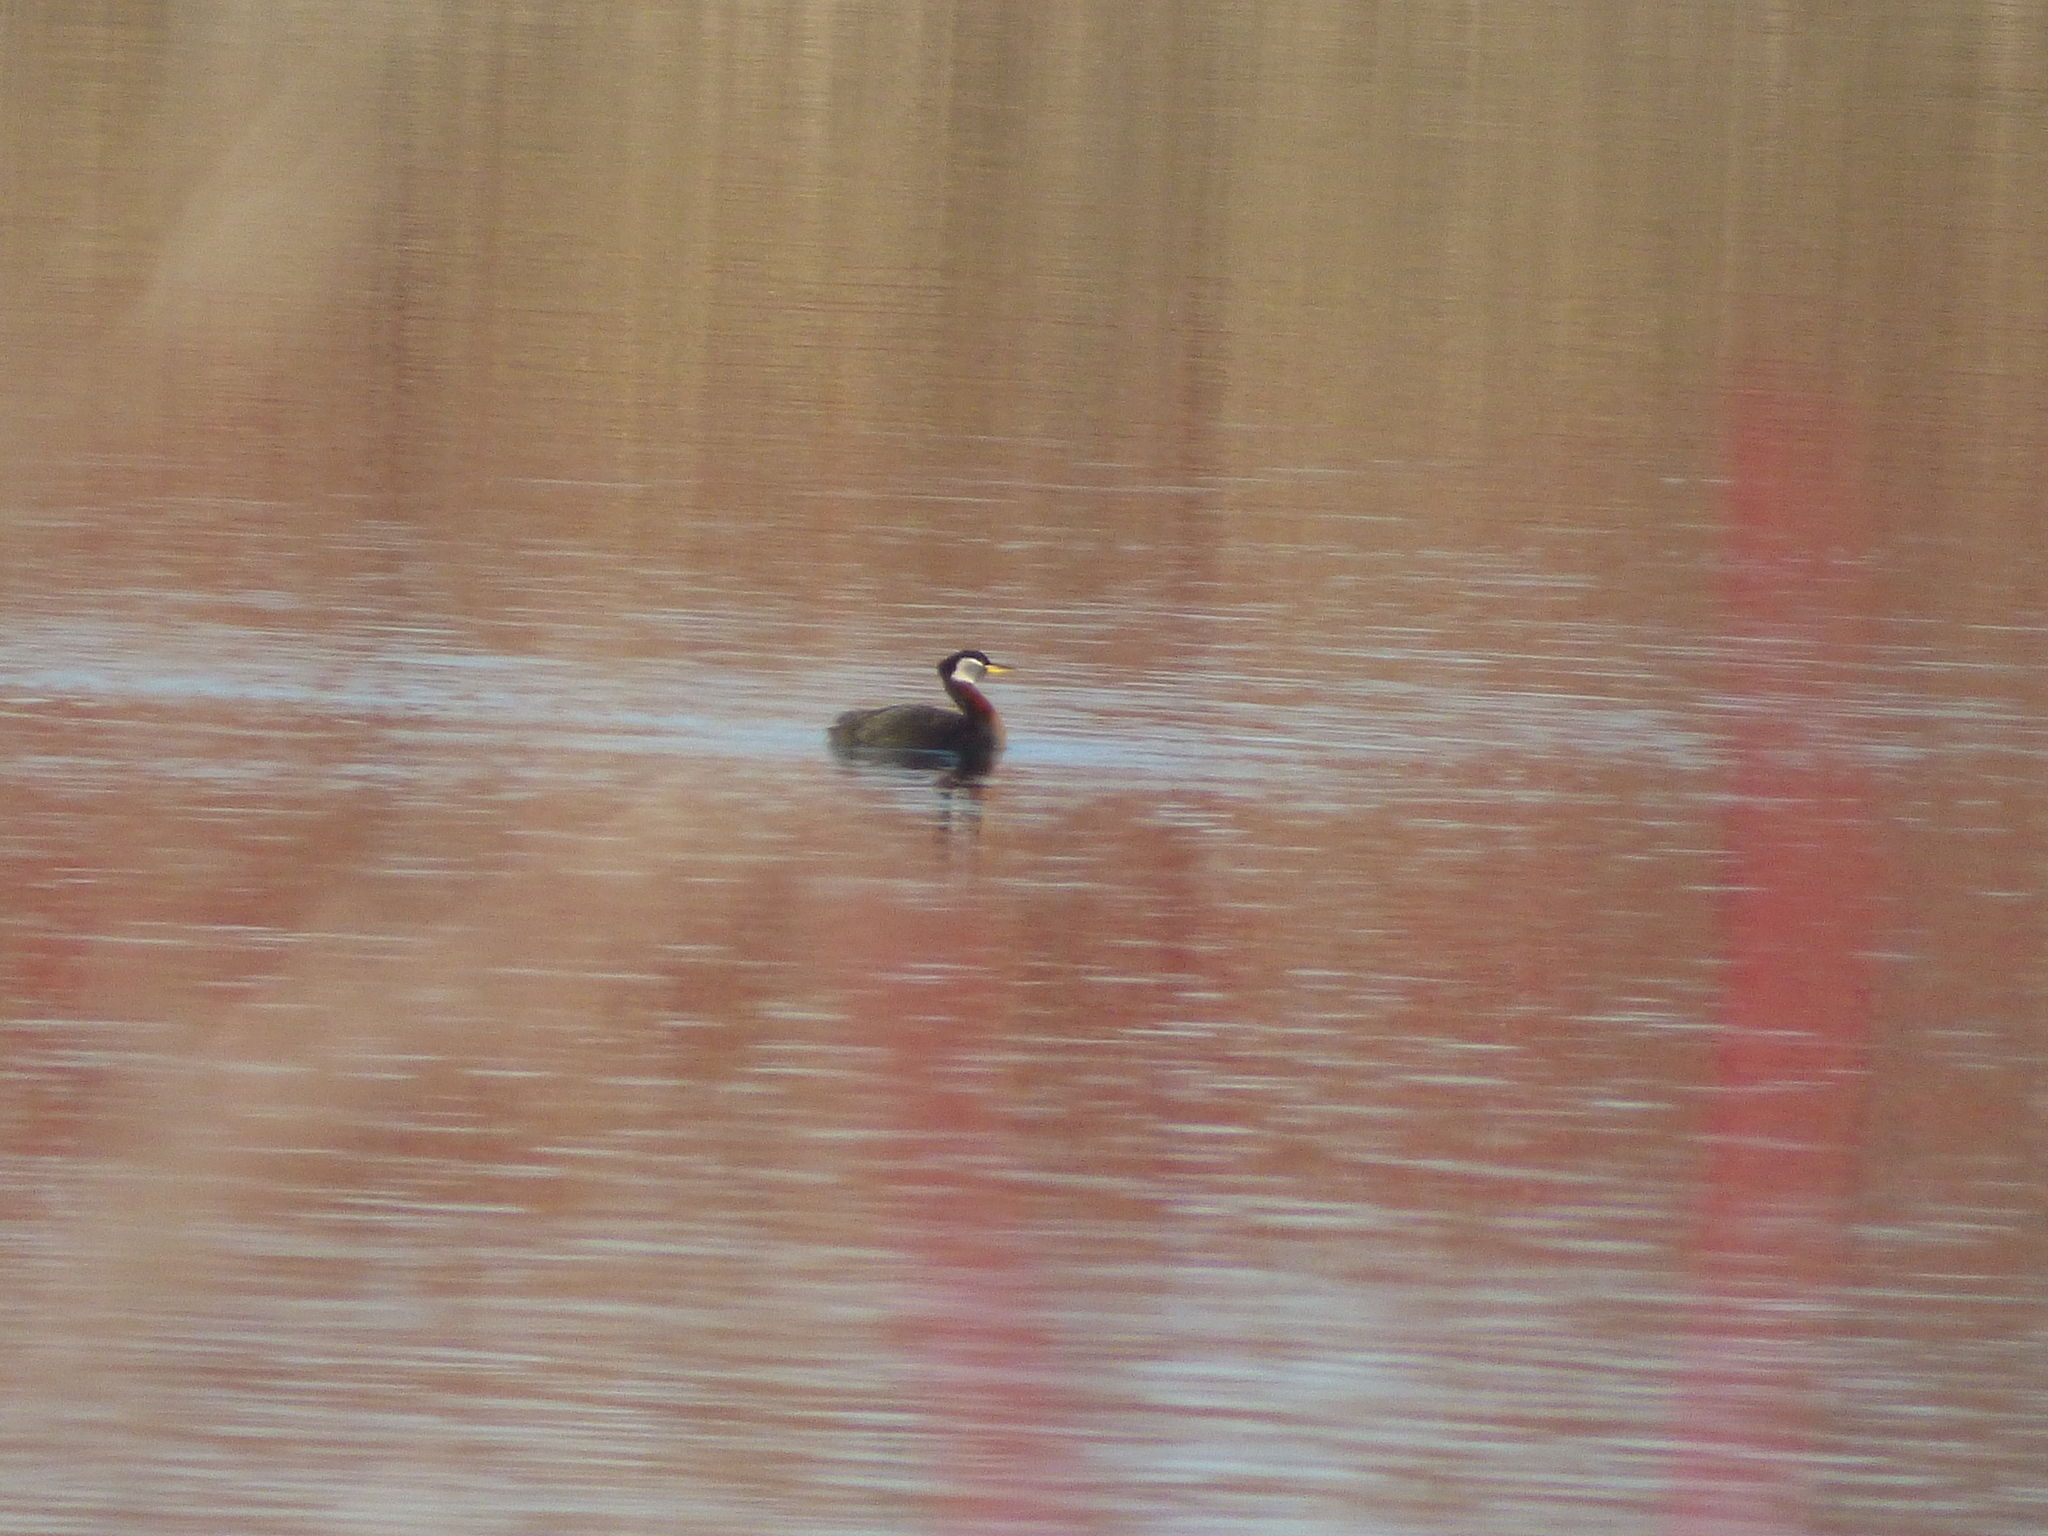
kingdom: Animalia
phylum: Chordata
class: Aves
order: Podicipediformes
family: Podicipedidae
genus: Podiceps
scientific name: Podiceps grisegena
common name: Red-necked grebe
